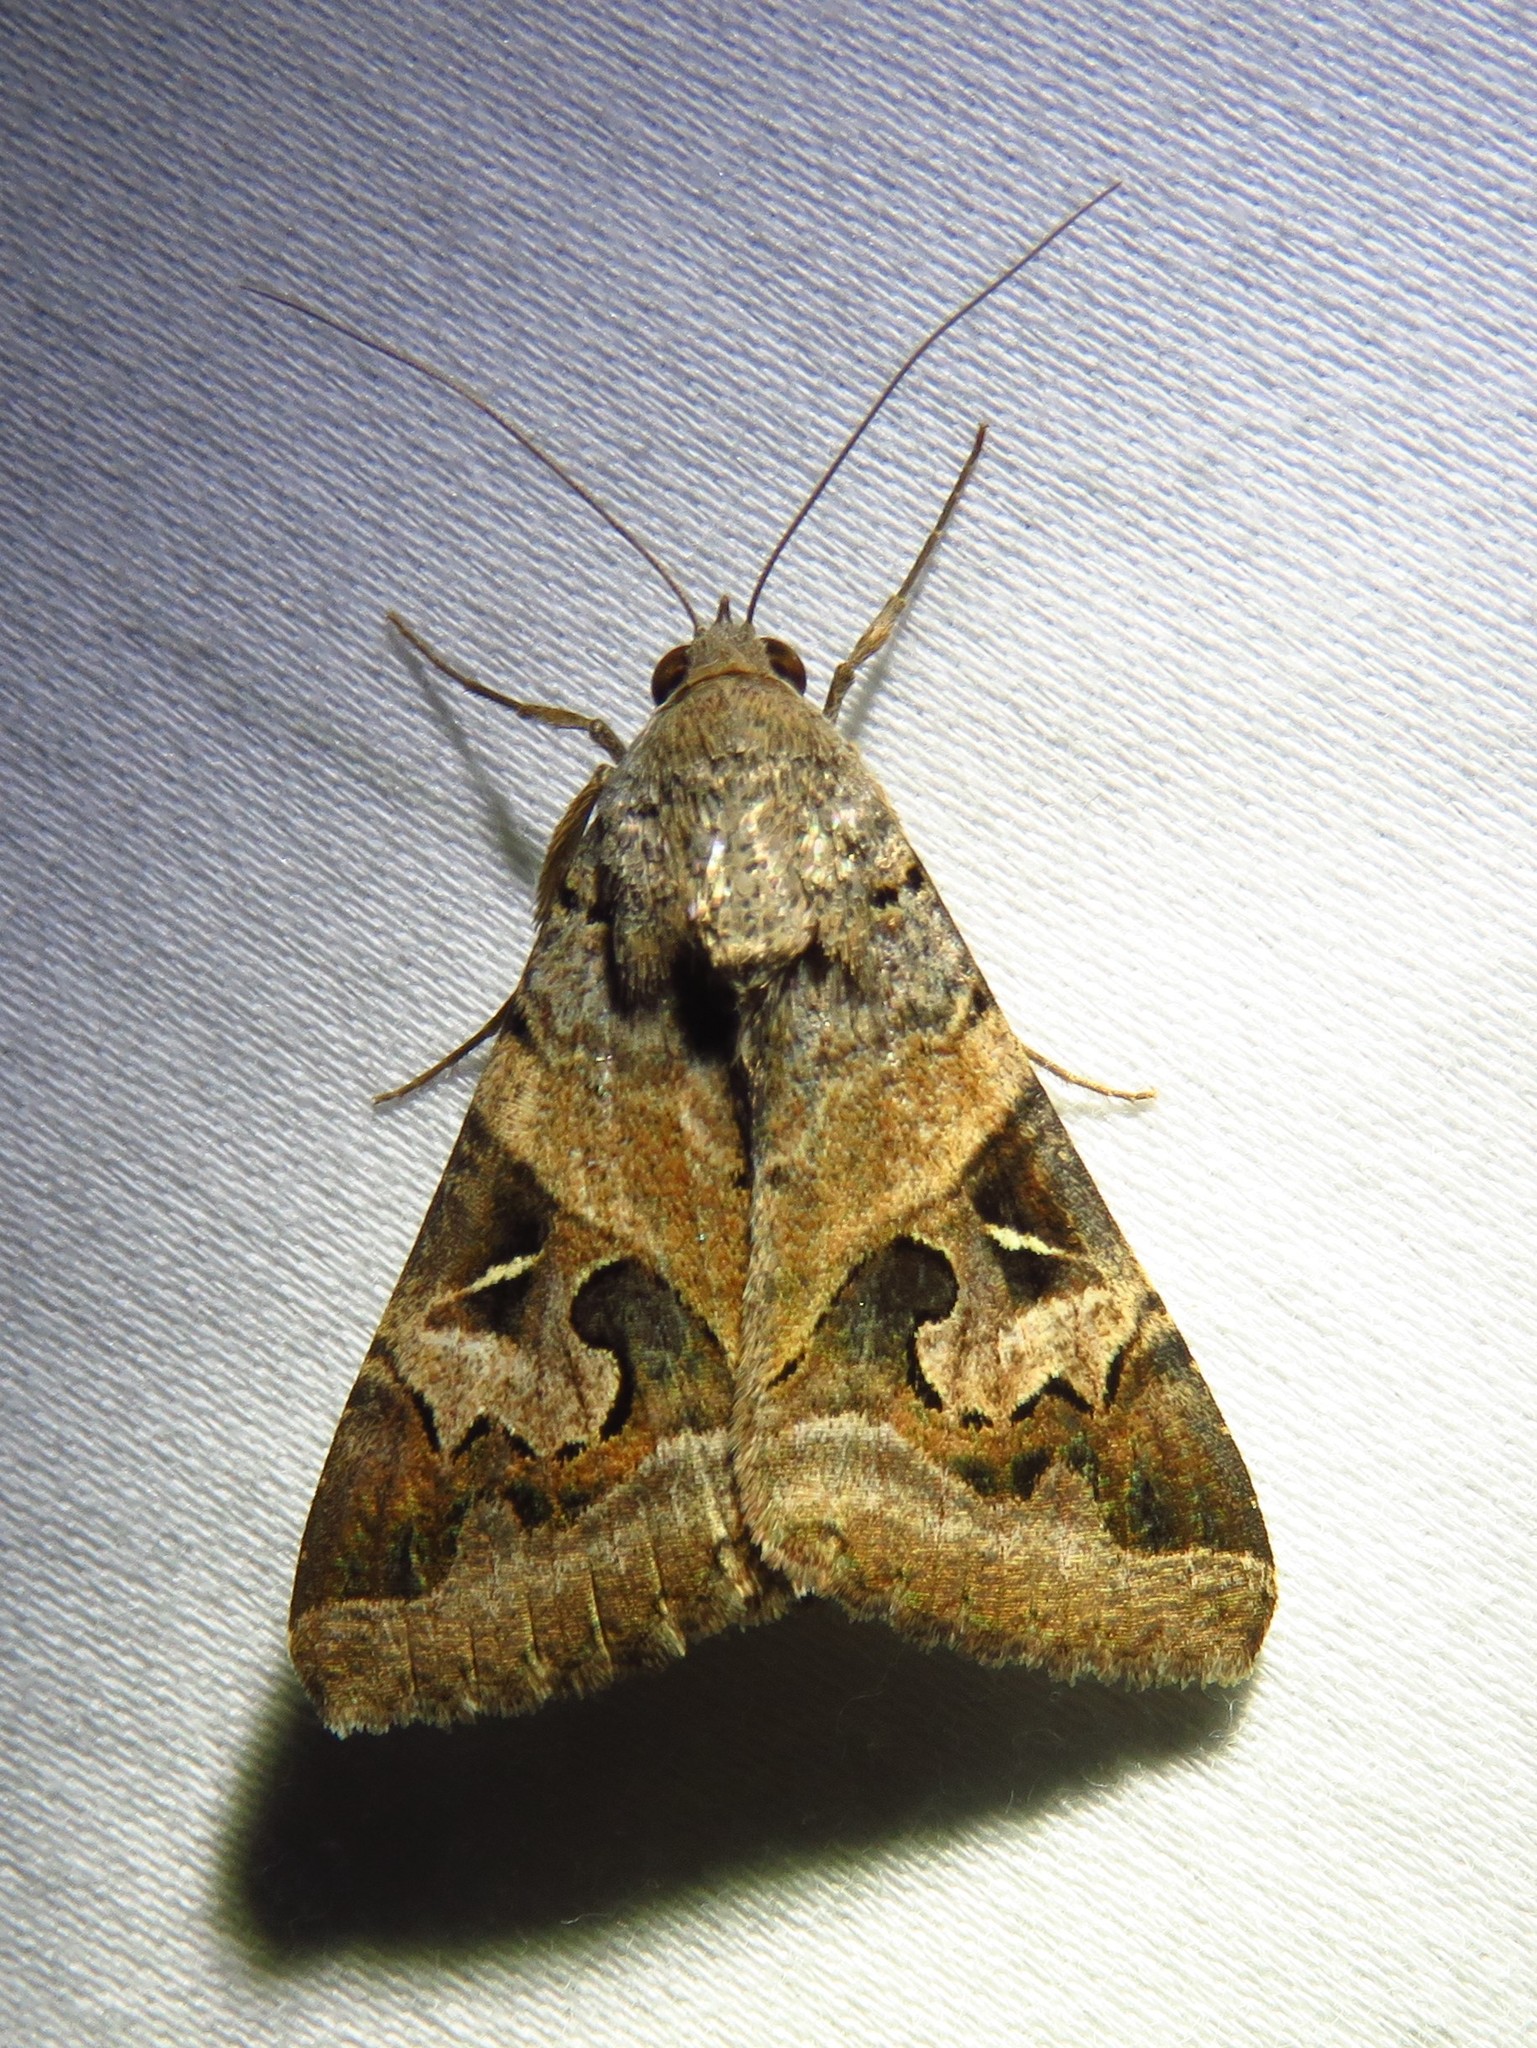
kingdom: Animalia
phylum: Arthropoda
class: Insecta
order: Lepidoptera
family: Erebidae
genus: Melipotis
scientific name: Melipotis indomita
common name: Moth
